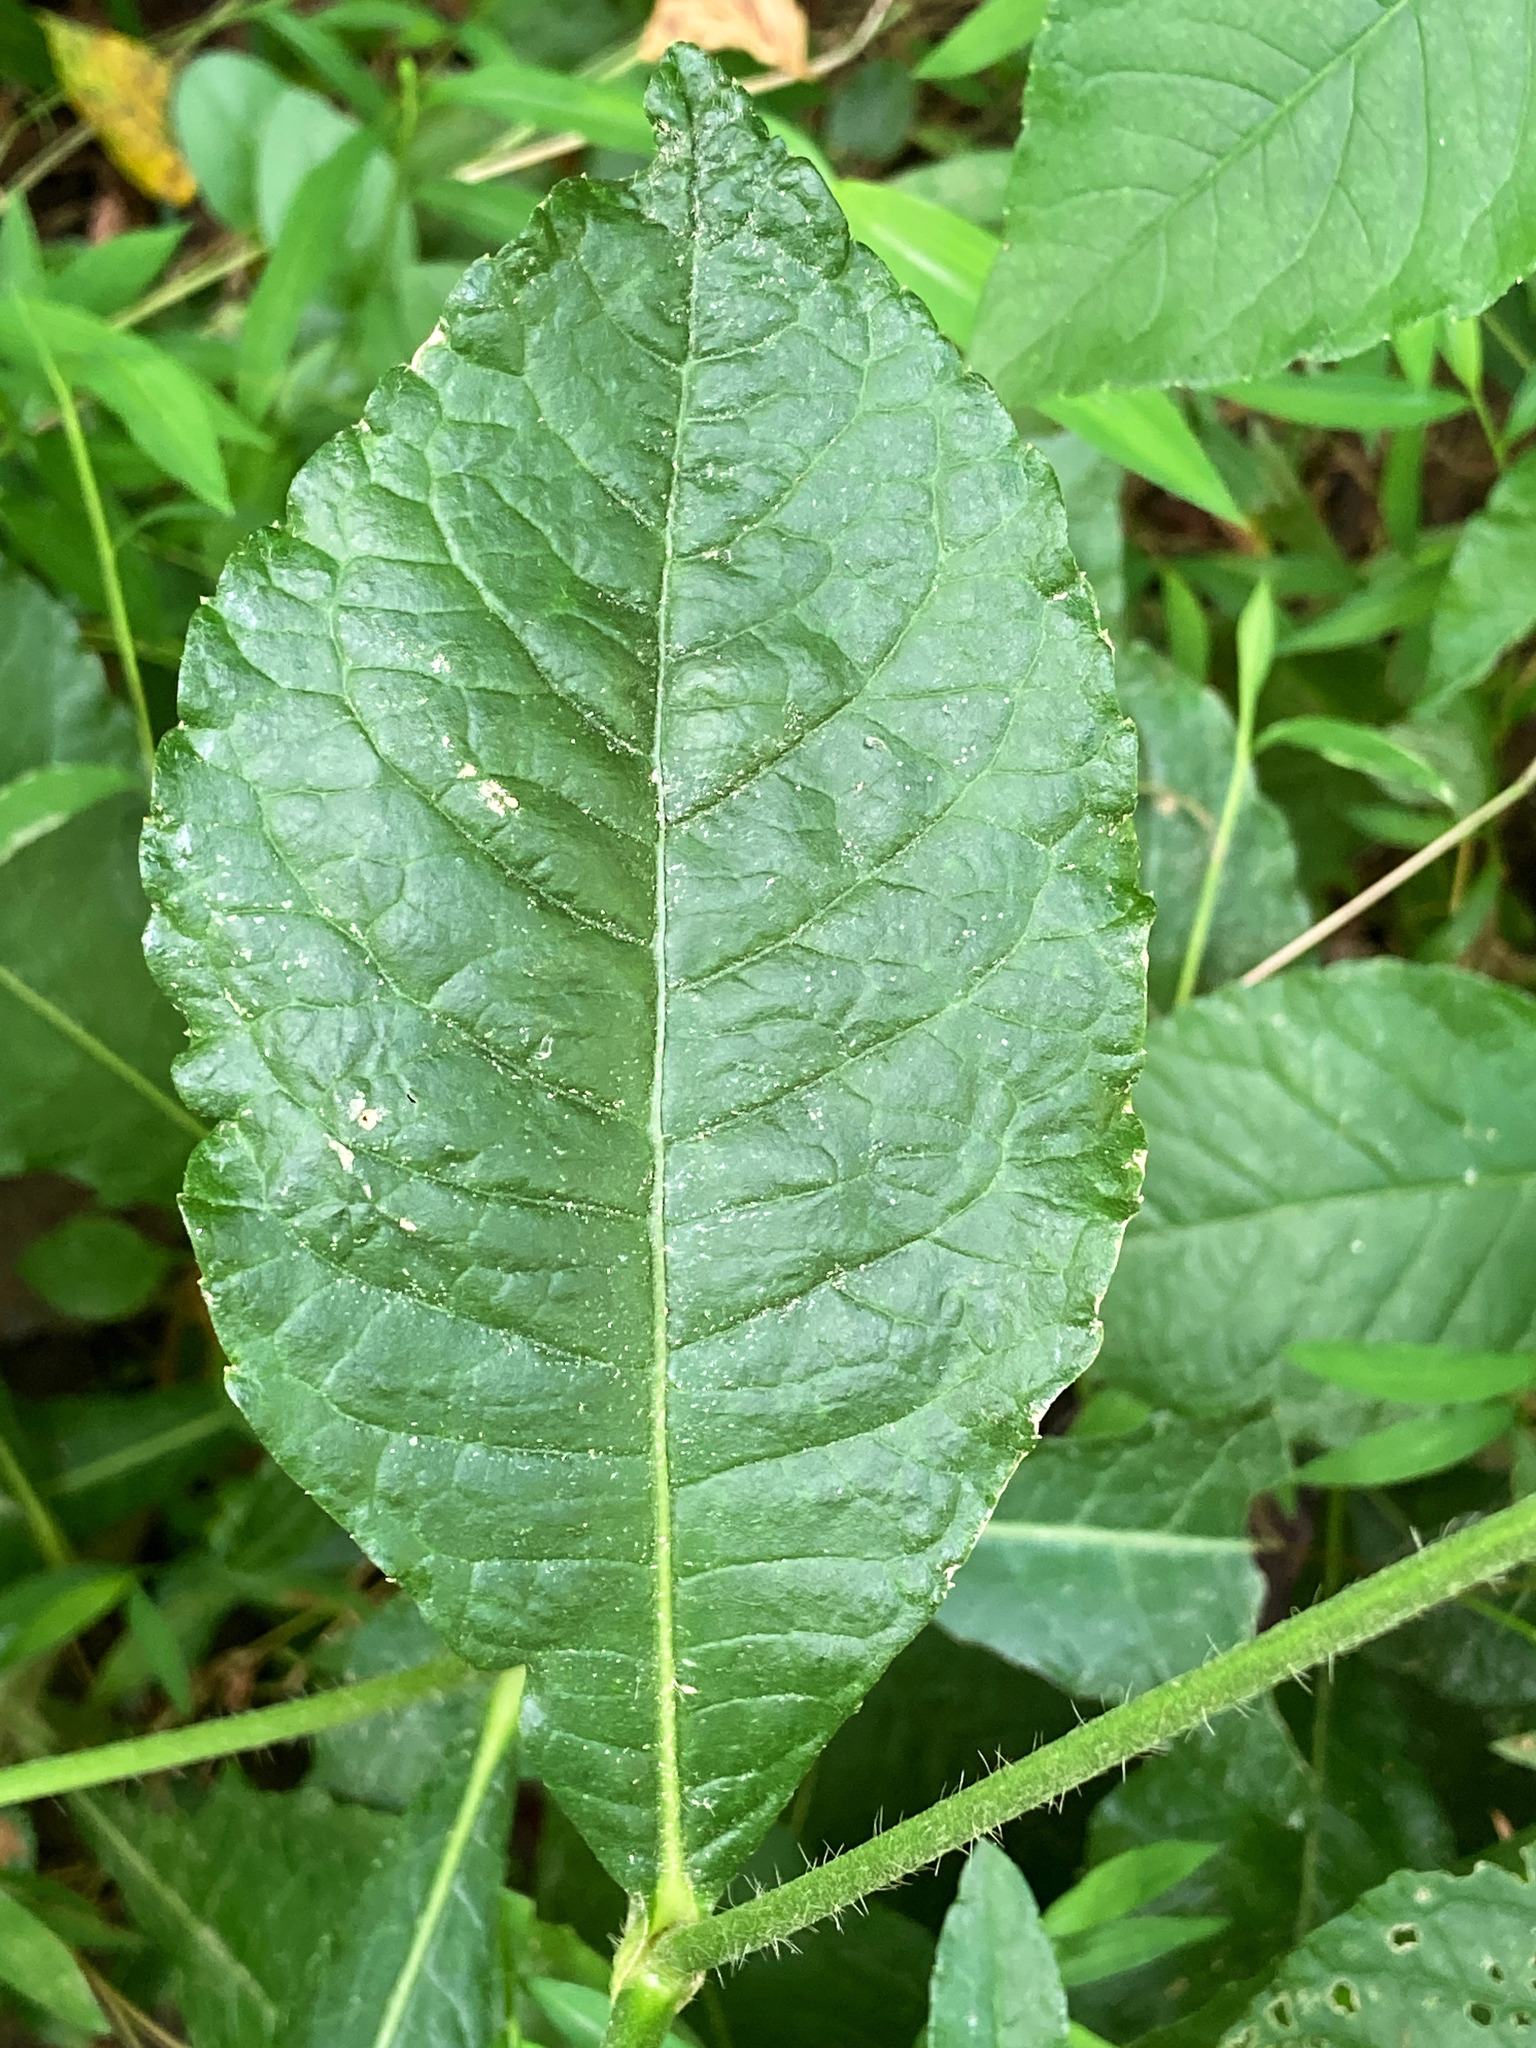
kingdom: Plantae
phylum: Tracheophyta
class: Magnoliopsida
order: Asterales
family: Asteraceae
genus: Elephantopus
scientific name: Elephantopus carolinianus
